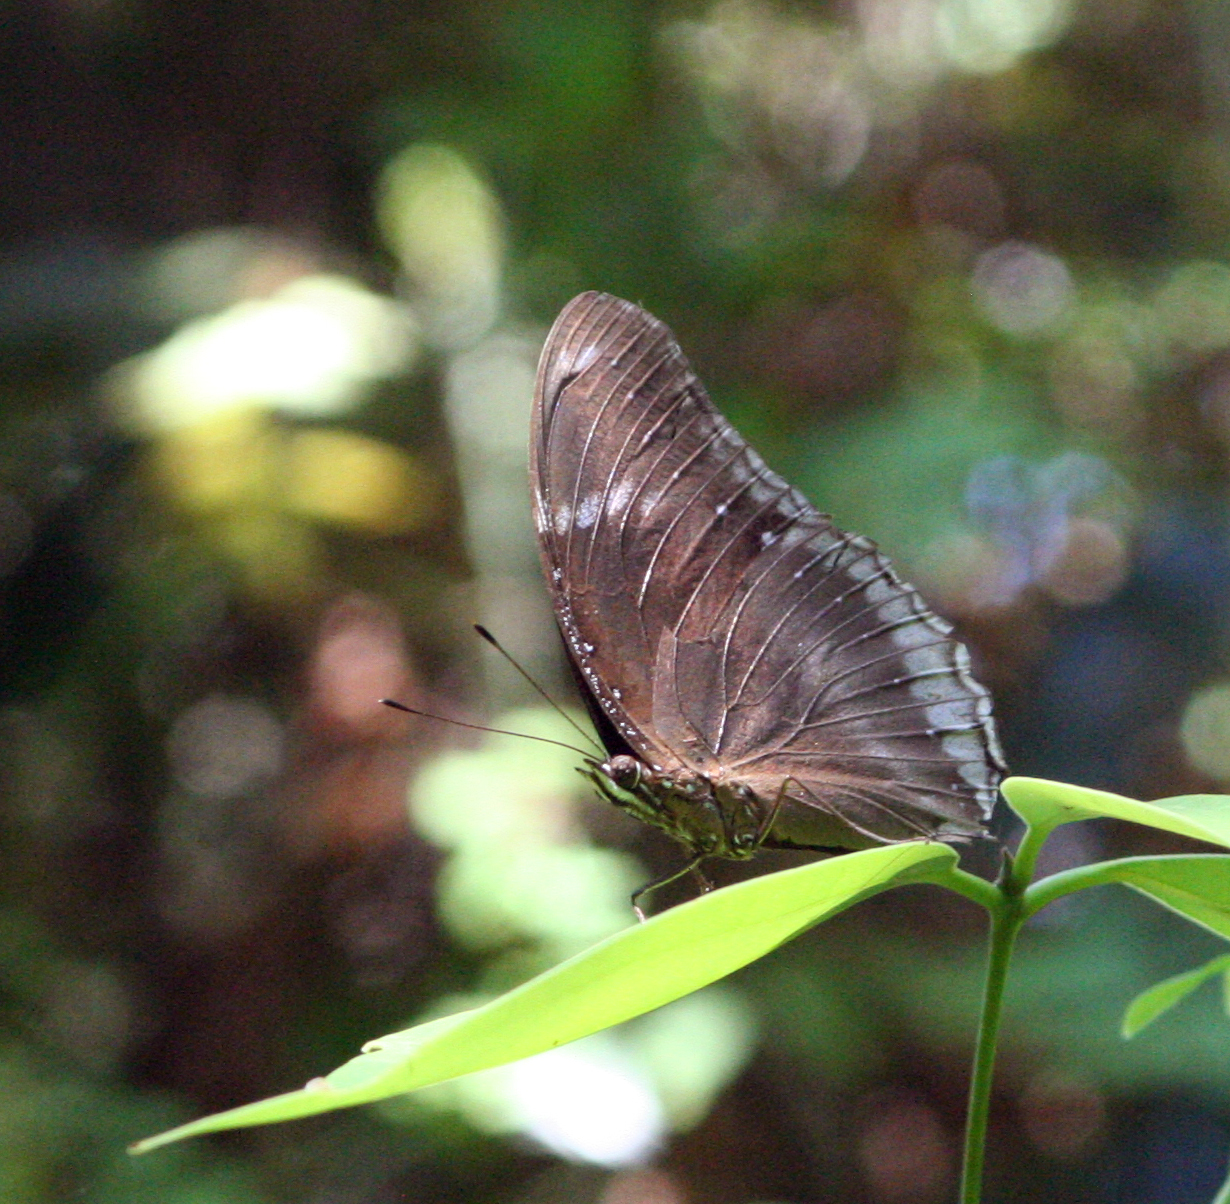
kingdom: Animalia
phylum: Arthropoda
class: Insecta
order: Lepidoptera
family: Nymphalidae
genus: Hypolimnas
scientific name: Hypolimnas bolina
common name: Great eggfly
